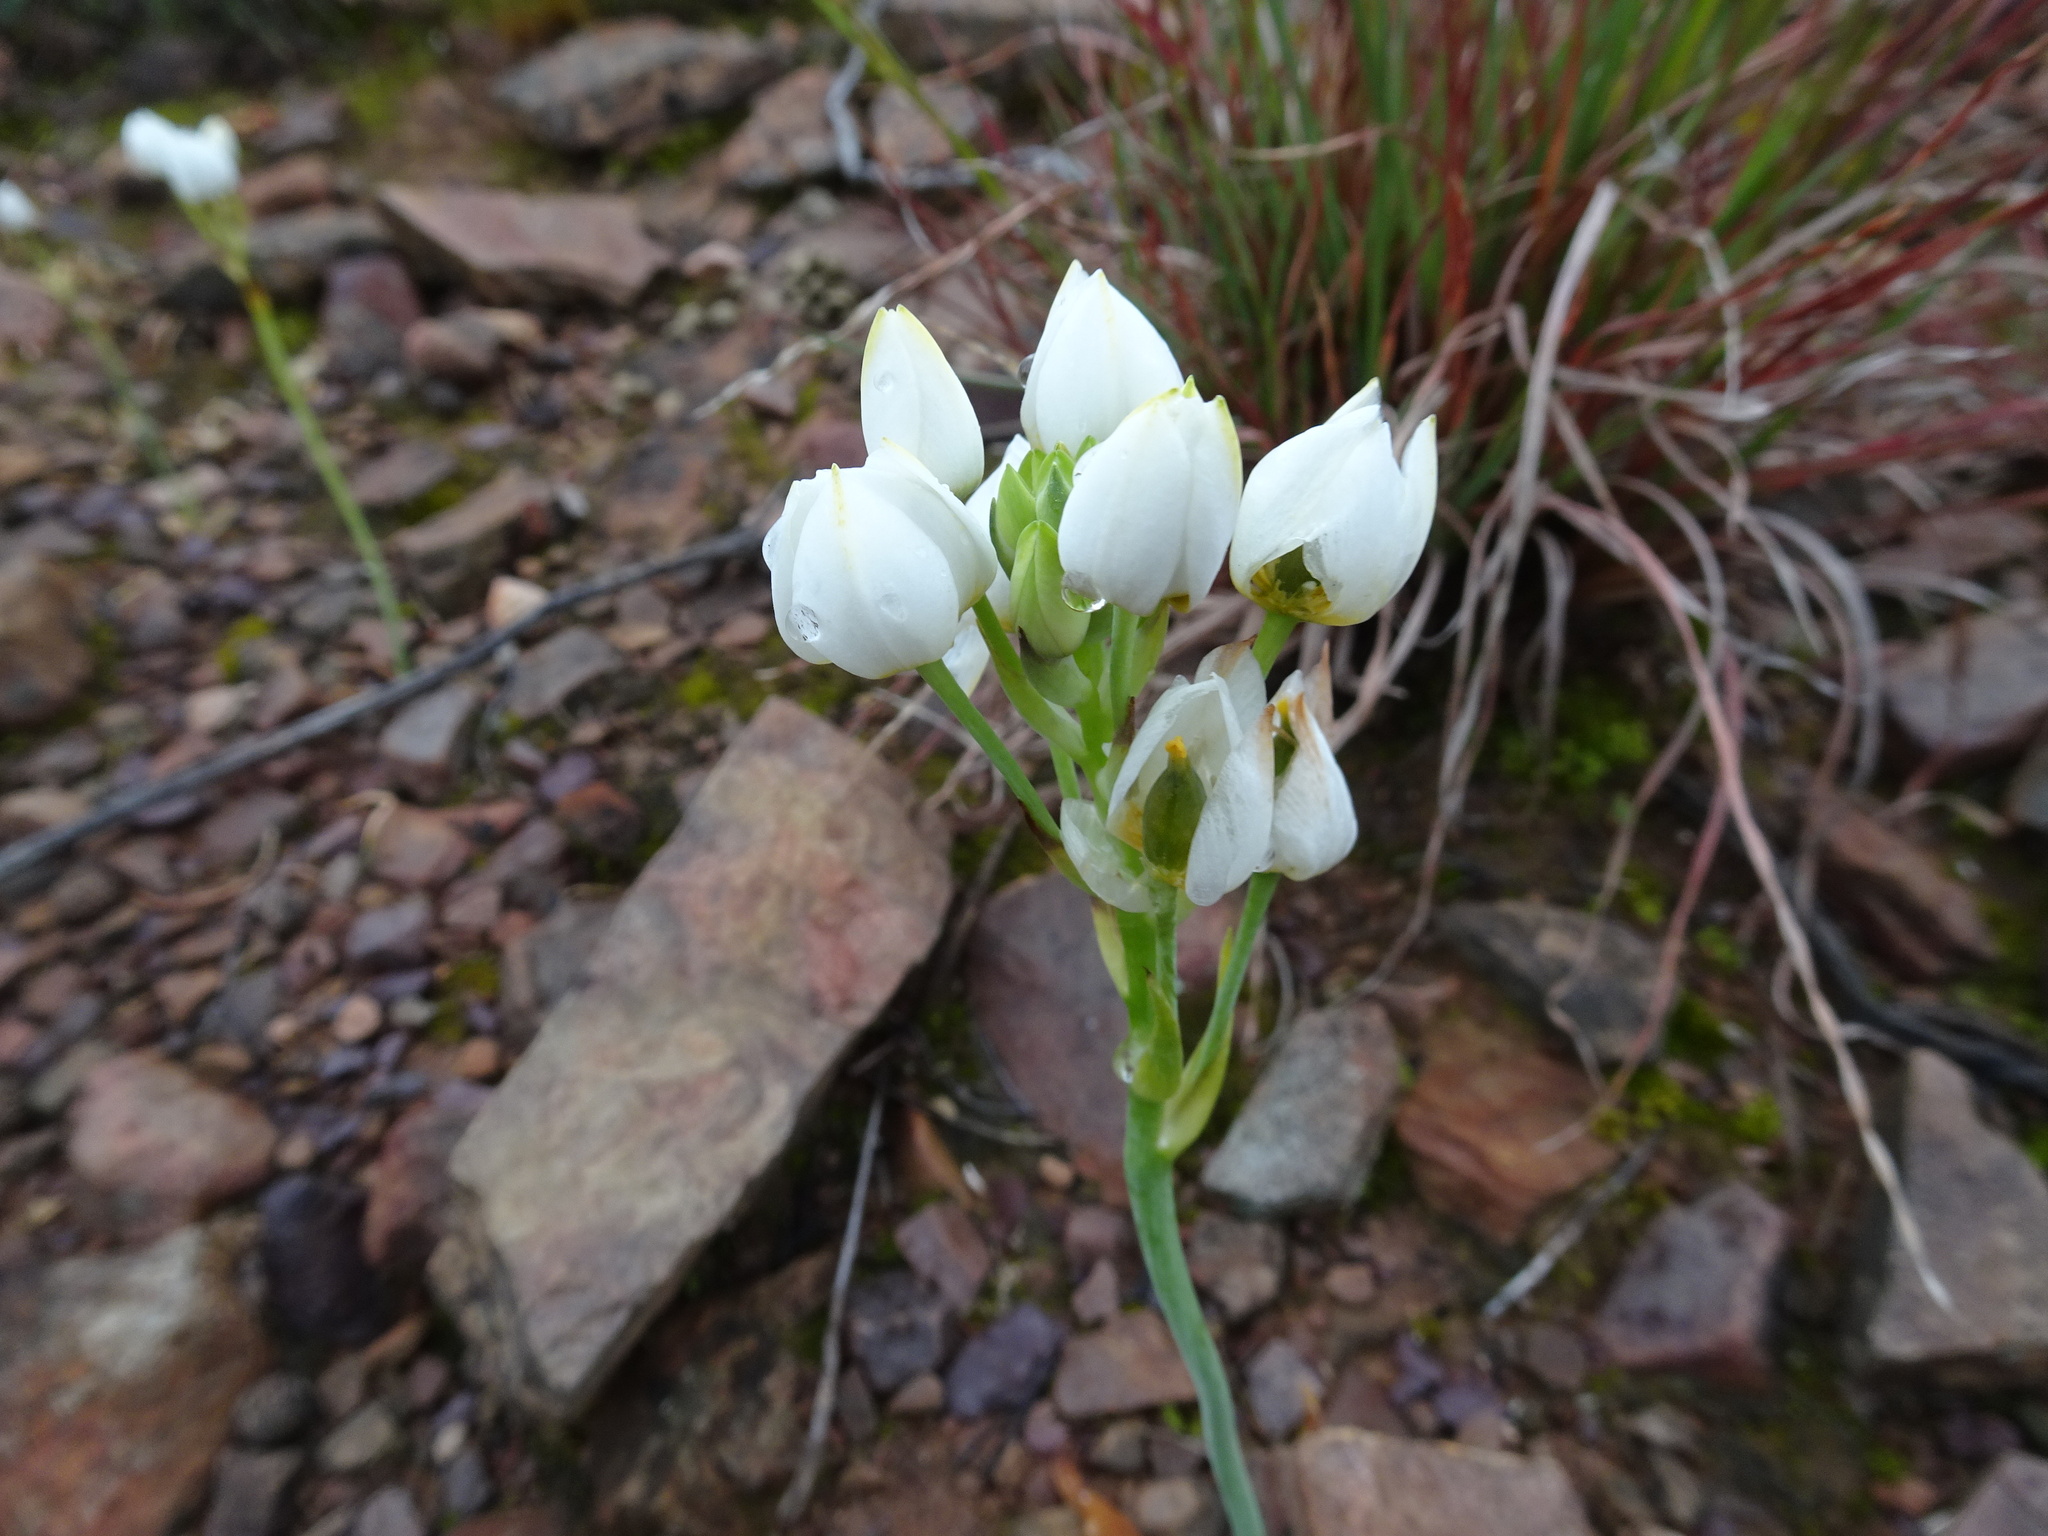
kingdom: Plantae
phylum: Tracheophyta
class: Liliopsida
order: Asparagales
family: Asparagaceae
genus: Ornithogalum
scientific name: Ornithogalum dubium
